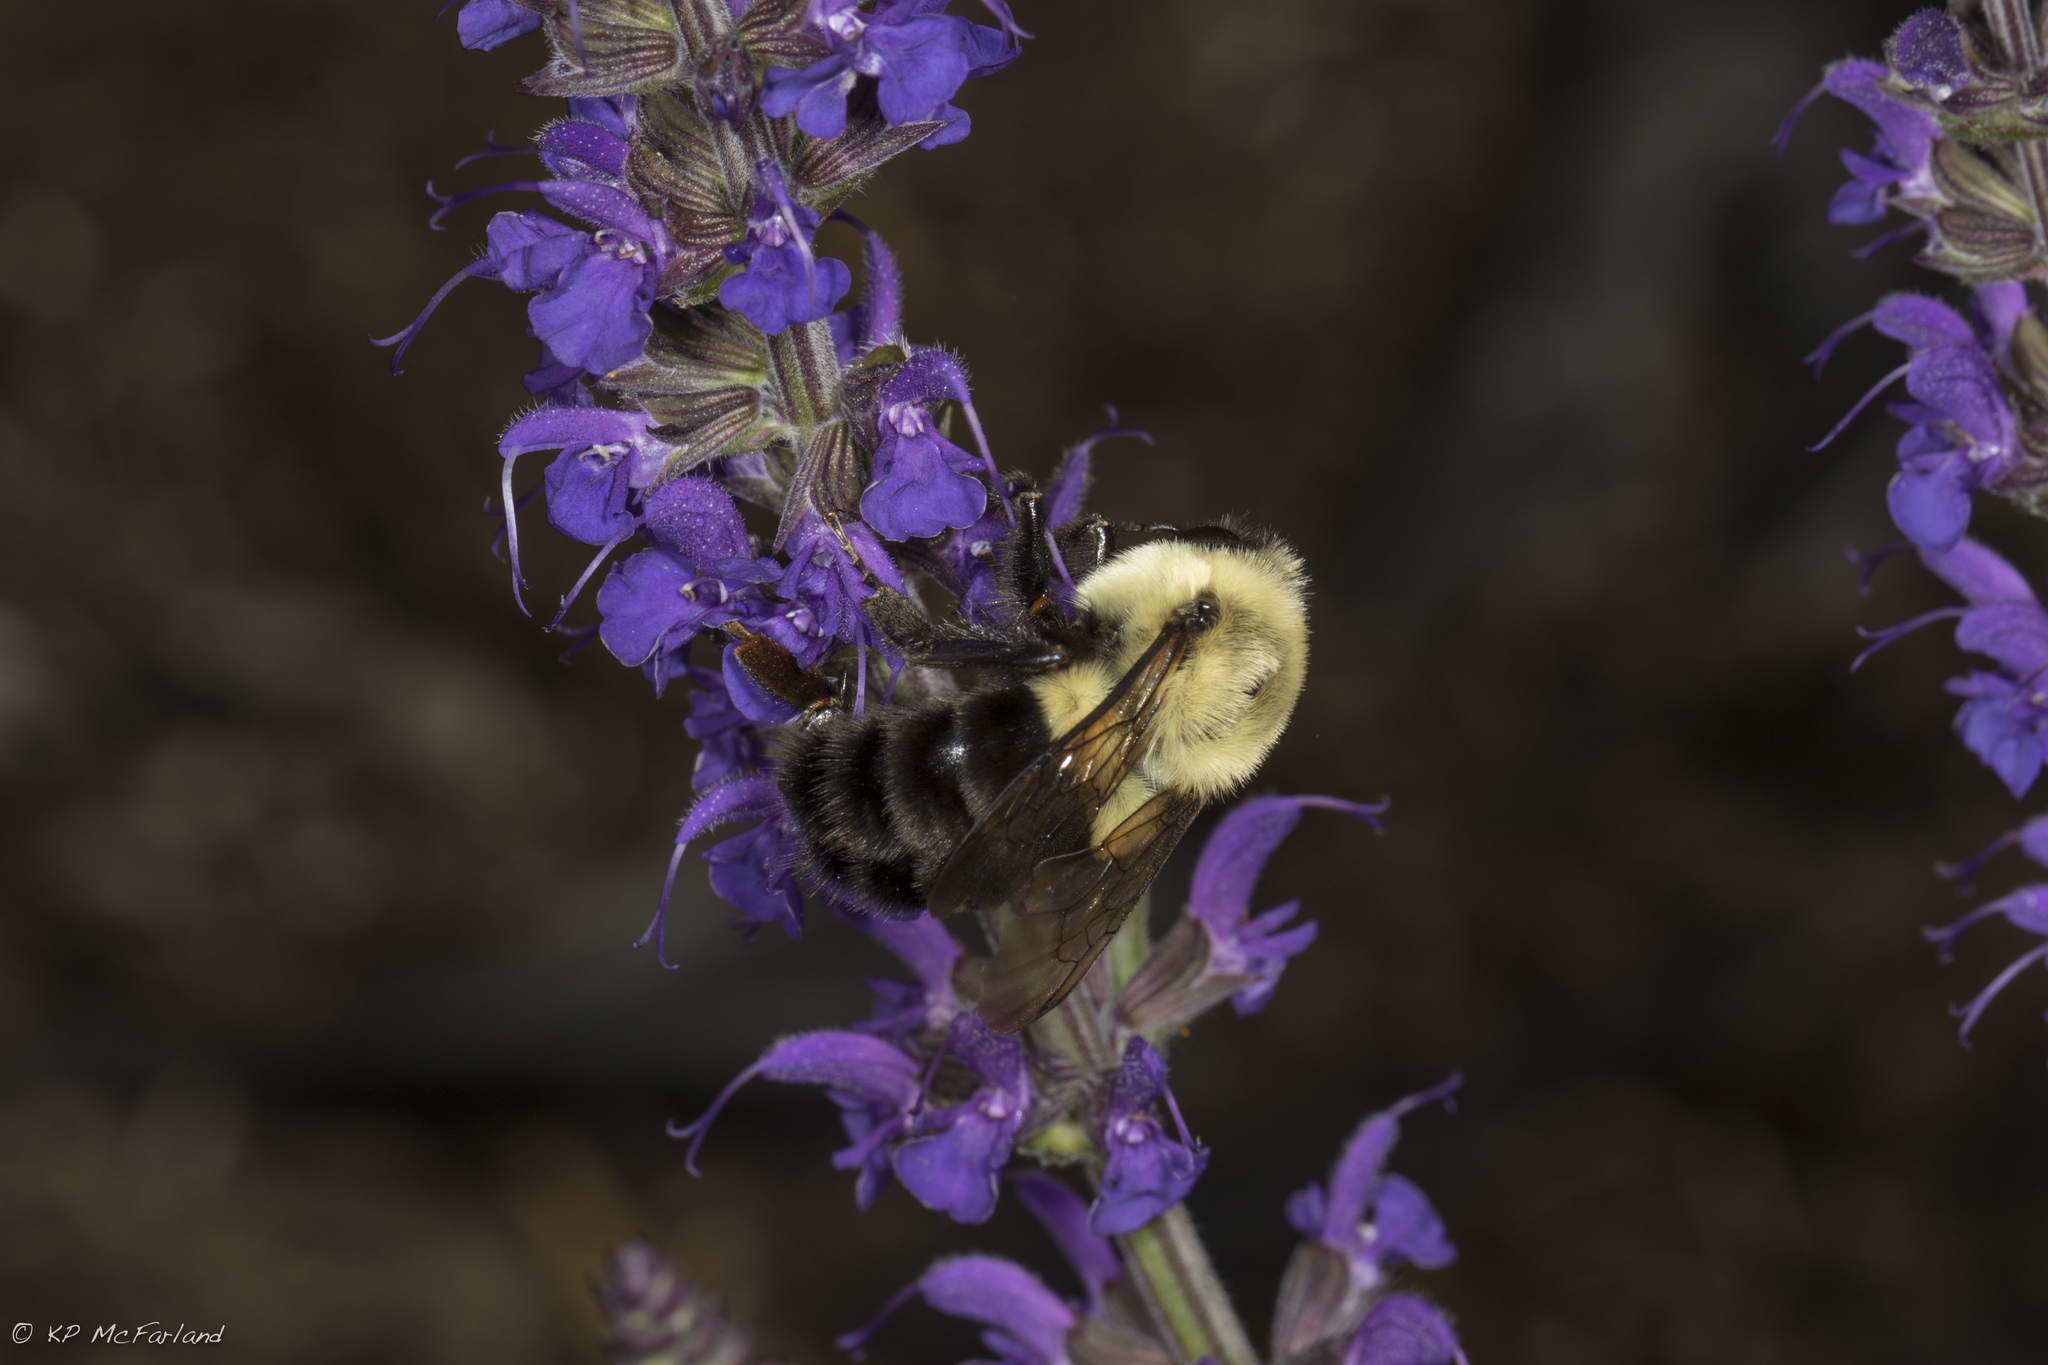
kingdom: Animalia
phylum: Arthropoda
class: Insecta
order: Hymenoptera
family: Apidae
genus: Bombus
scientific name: Bombus impatiens
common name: Common eastern bumble bee
